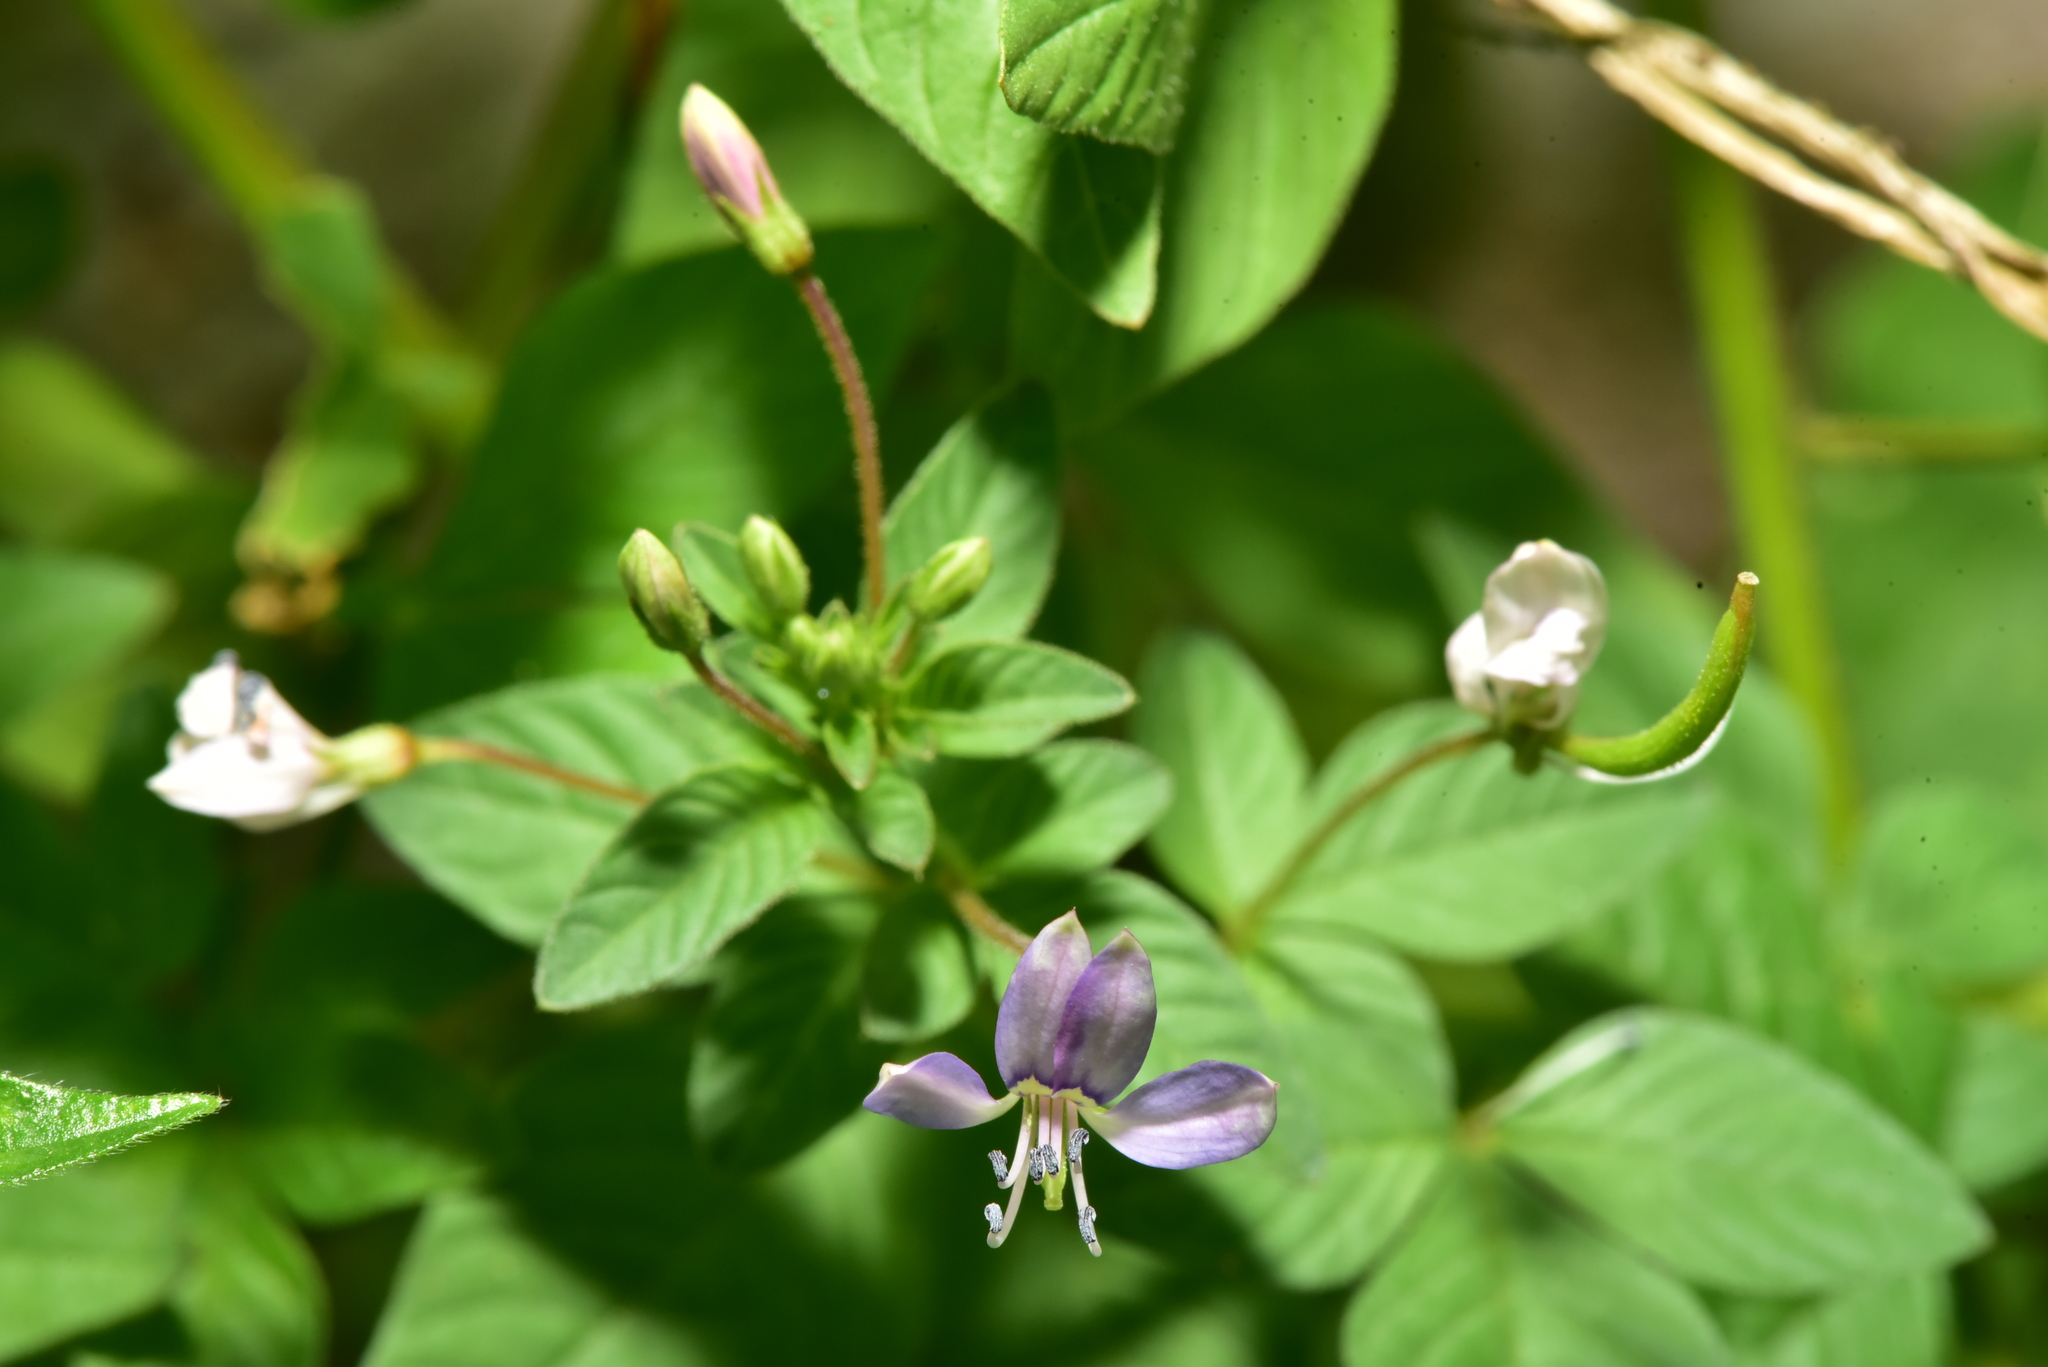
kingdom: Plantae
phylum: Tracheophyta
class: Magnoliopsida
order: Brassicales
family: Cleomaceae
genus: Sieruela
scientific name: Sieruela rutidosperma
